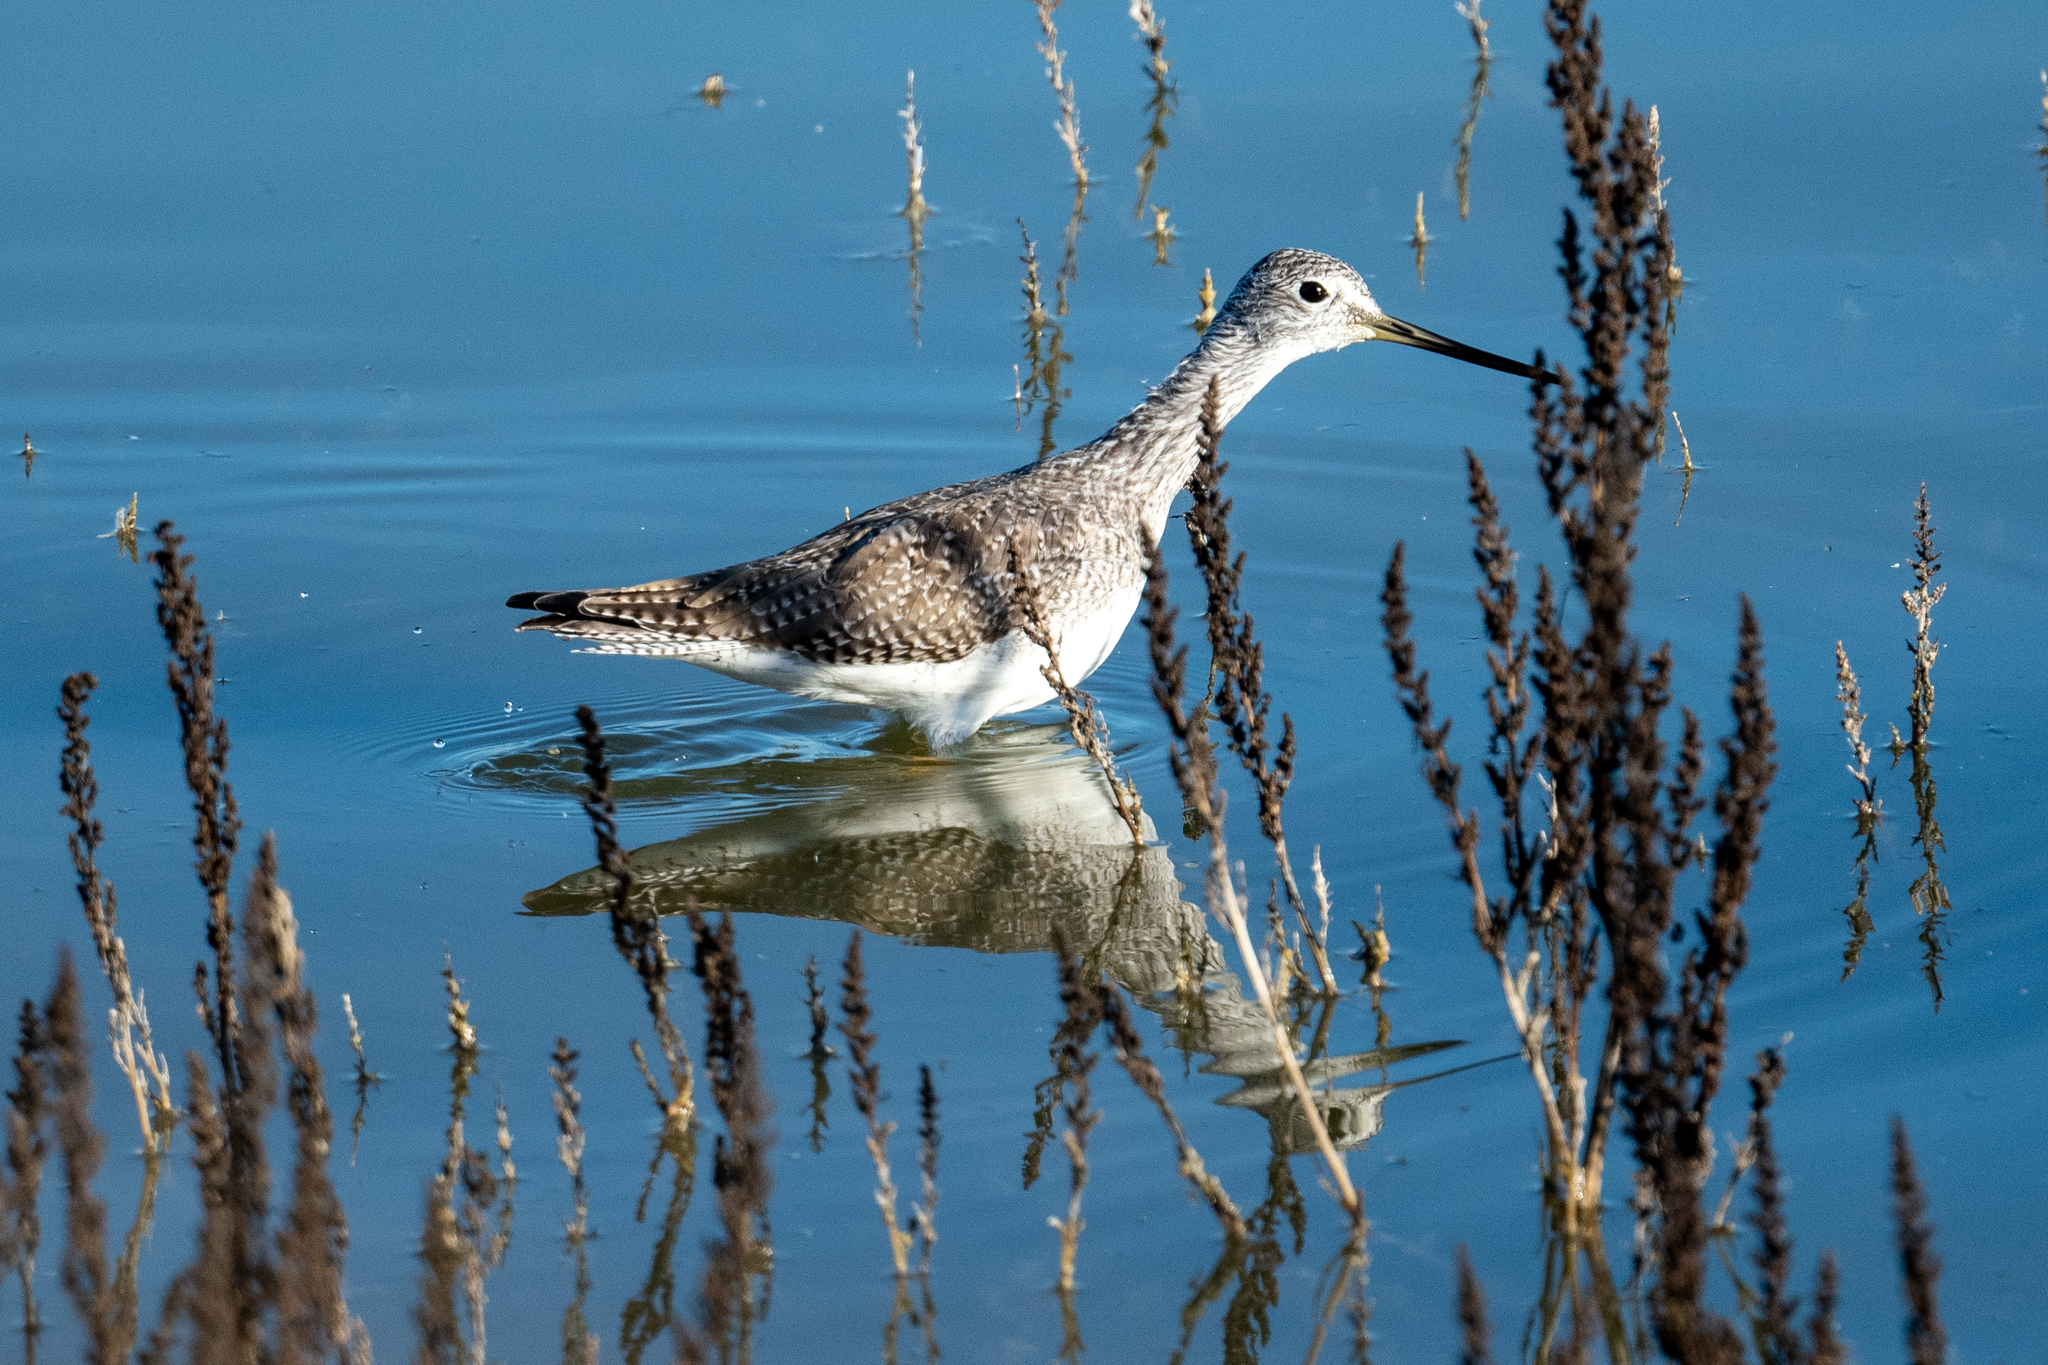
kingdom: Animalia
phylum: Chordata
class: Aves
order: Charadriiformes
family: Scolopacidae
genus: Tringa
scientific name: Tringa melanoleuca
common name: Greater yellowlegs
